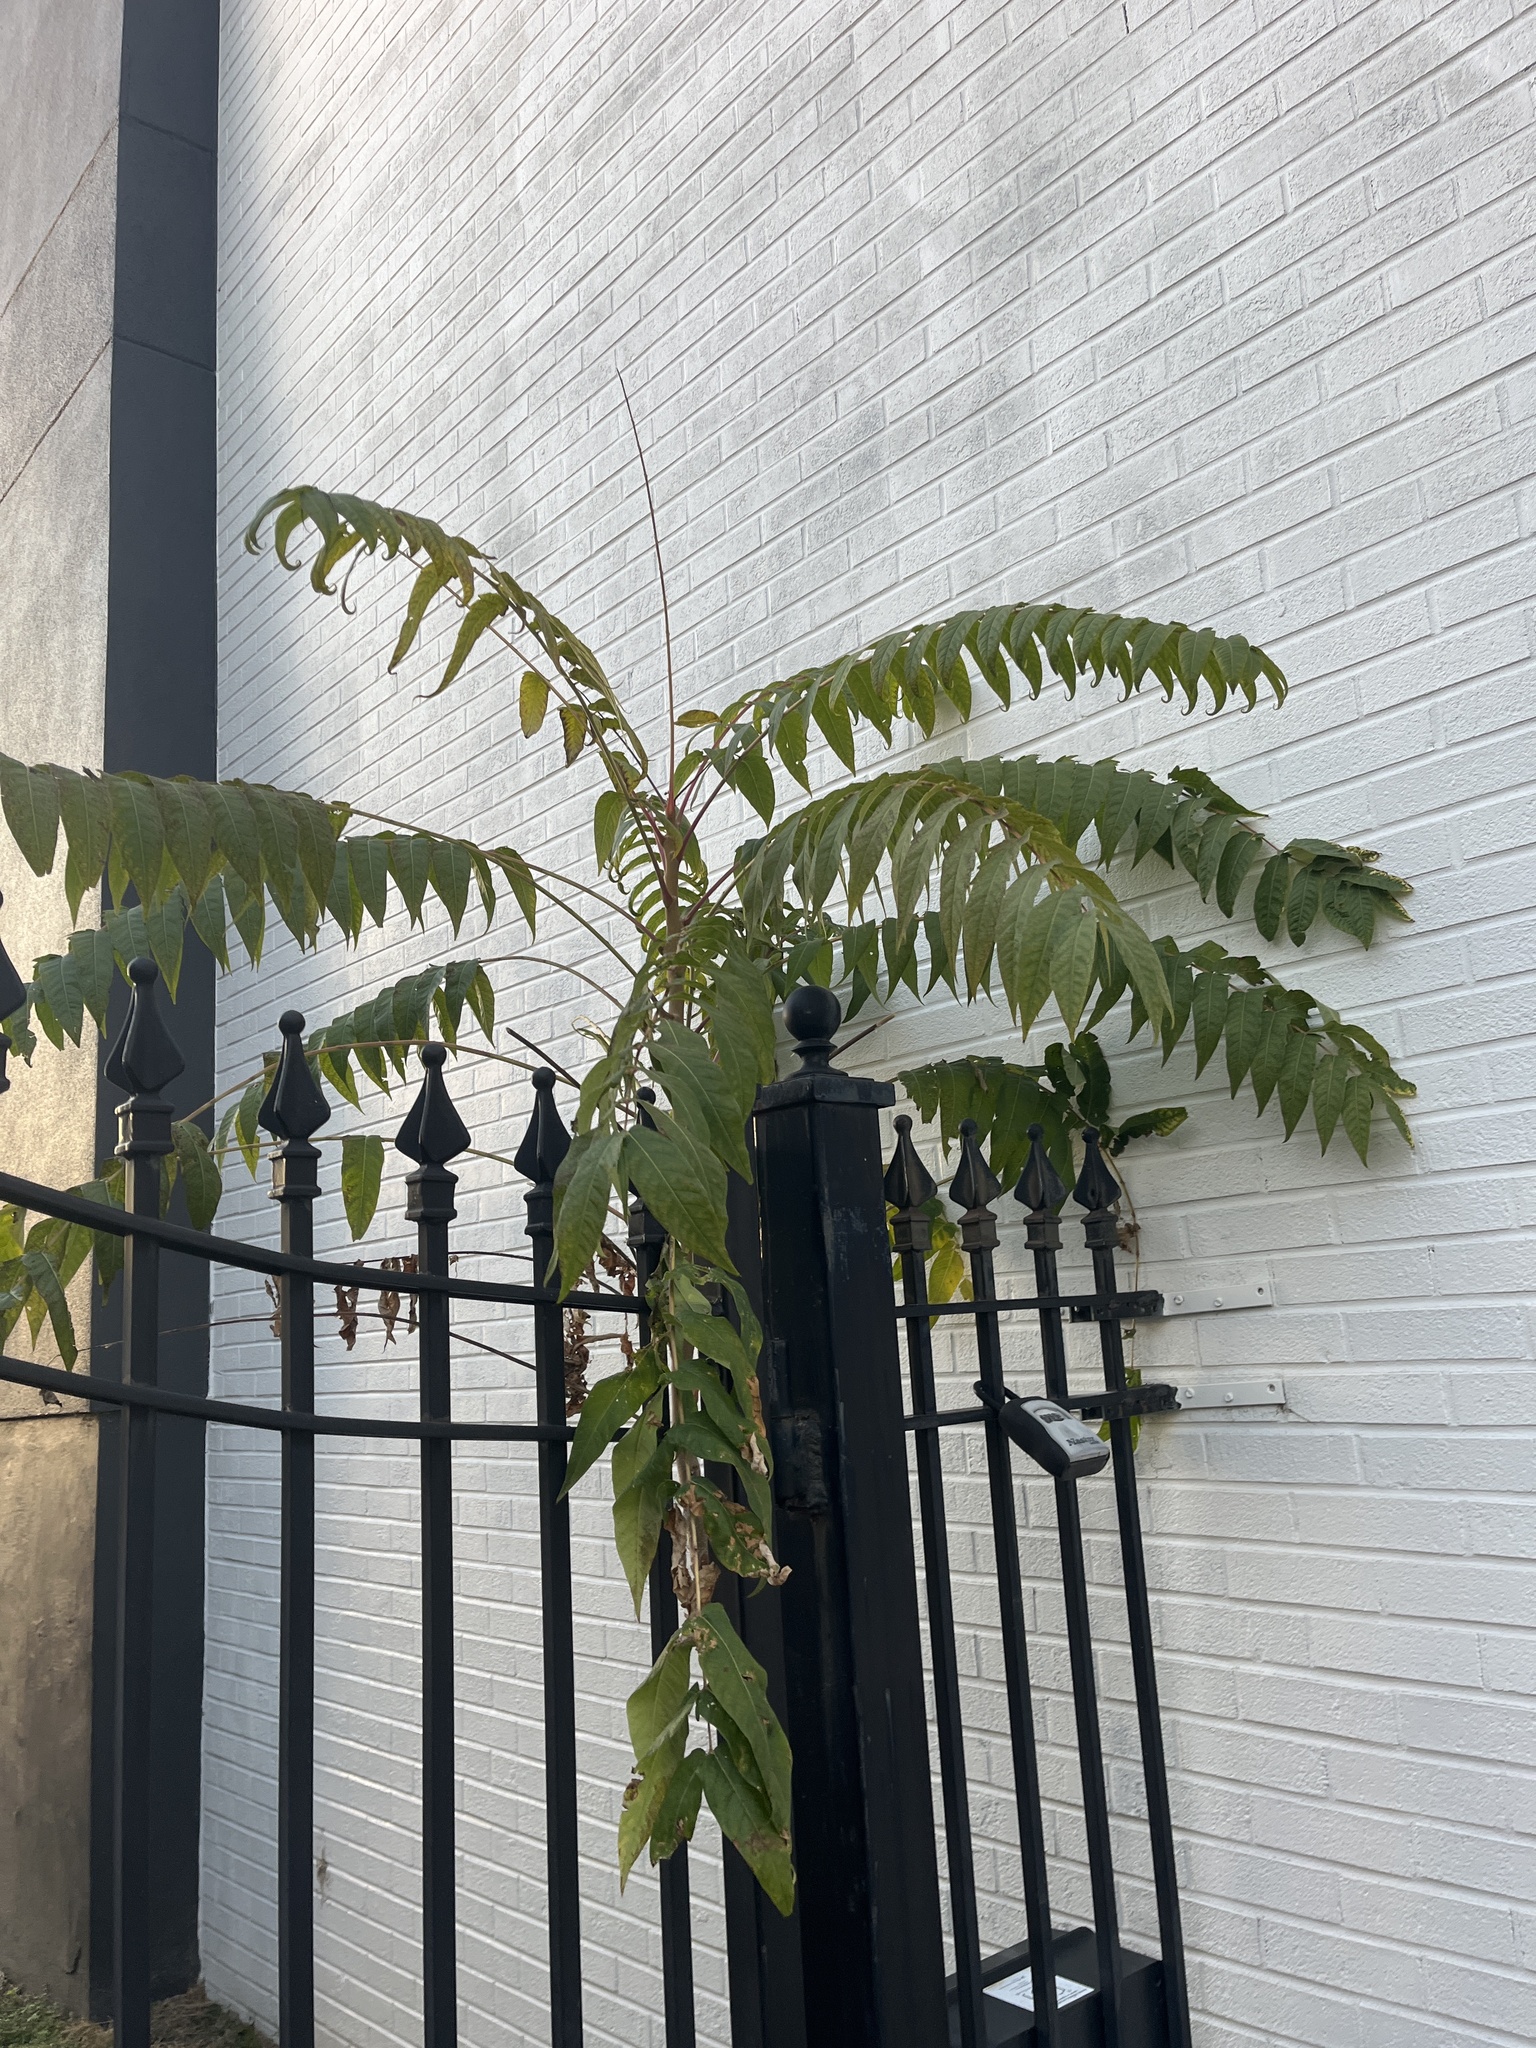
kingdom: Plantae
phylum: Tracheophyta
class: Magnoliopsida
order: Sapindales
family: Simaroubaceae
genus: Ailanthus
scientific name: Ailanthus altissima
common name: Tree-of-heaven
